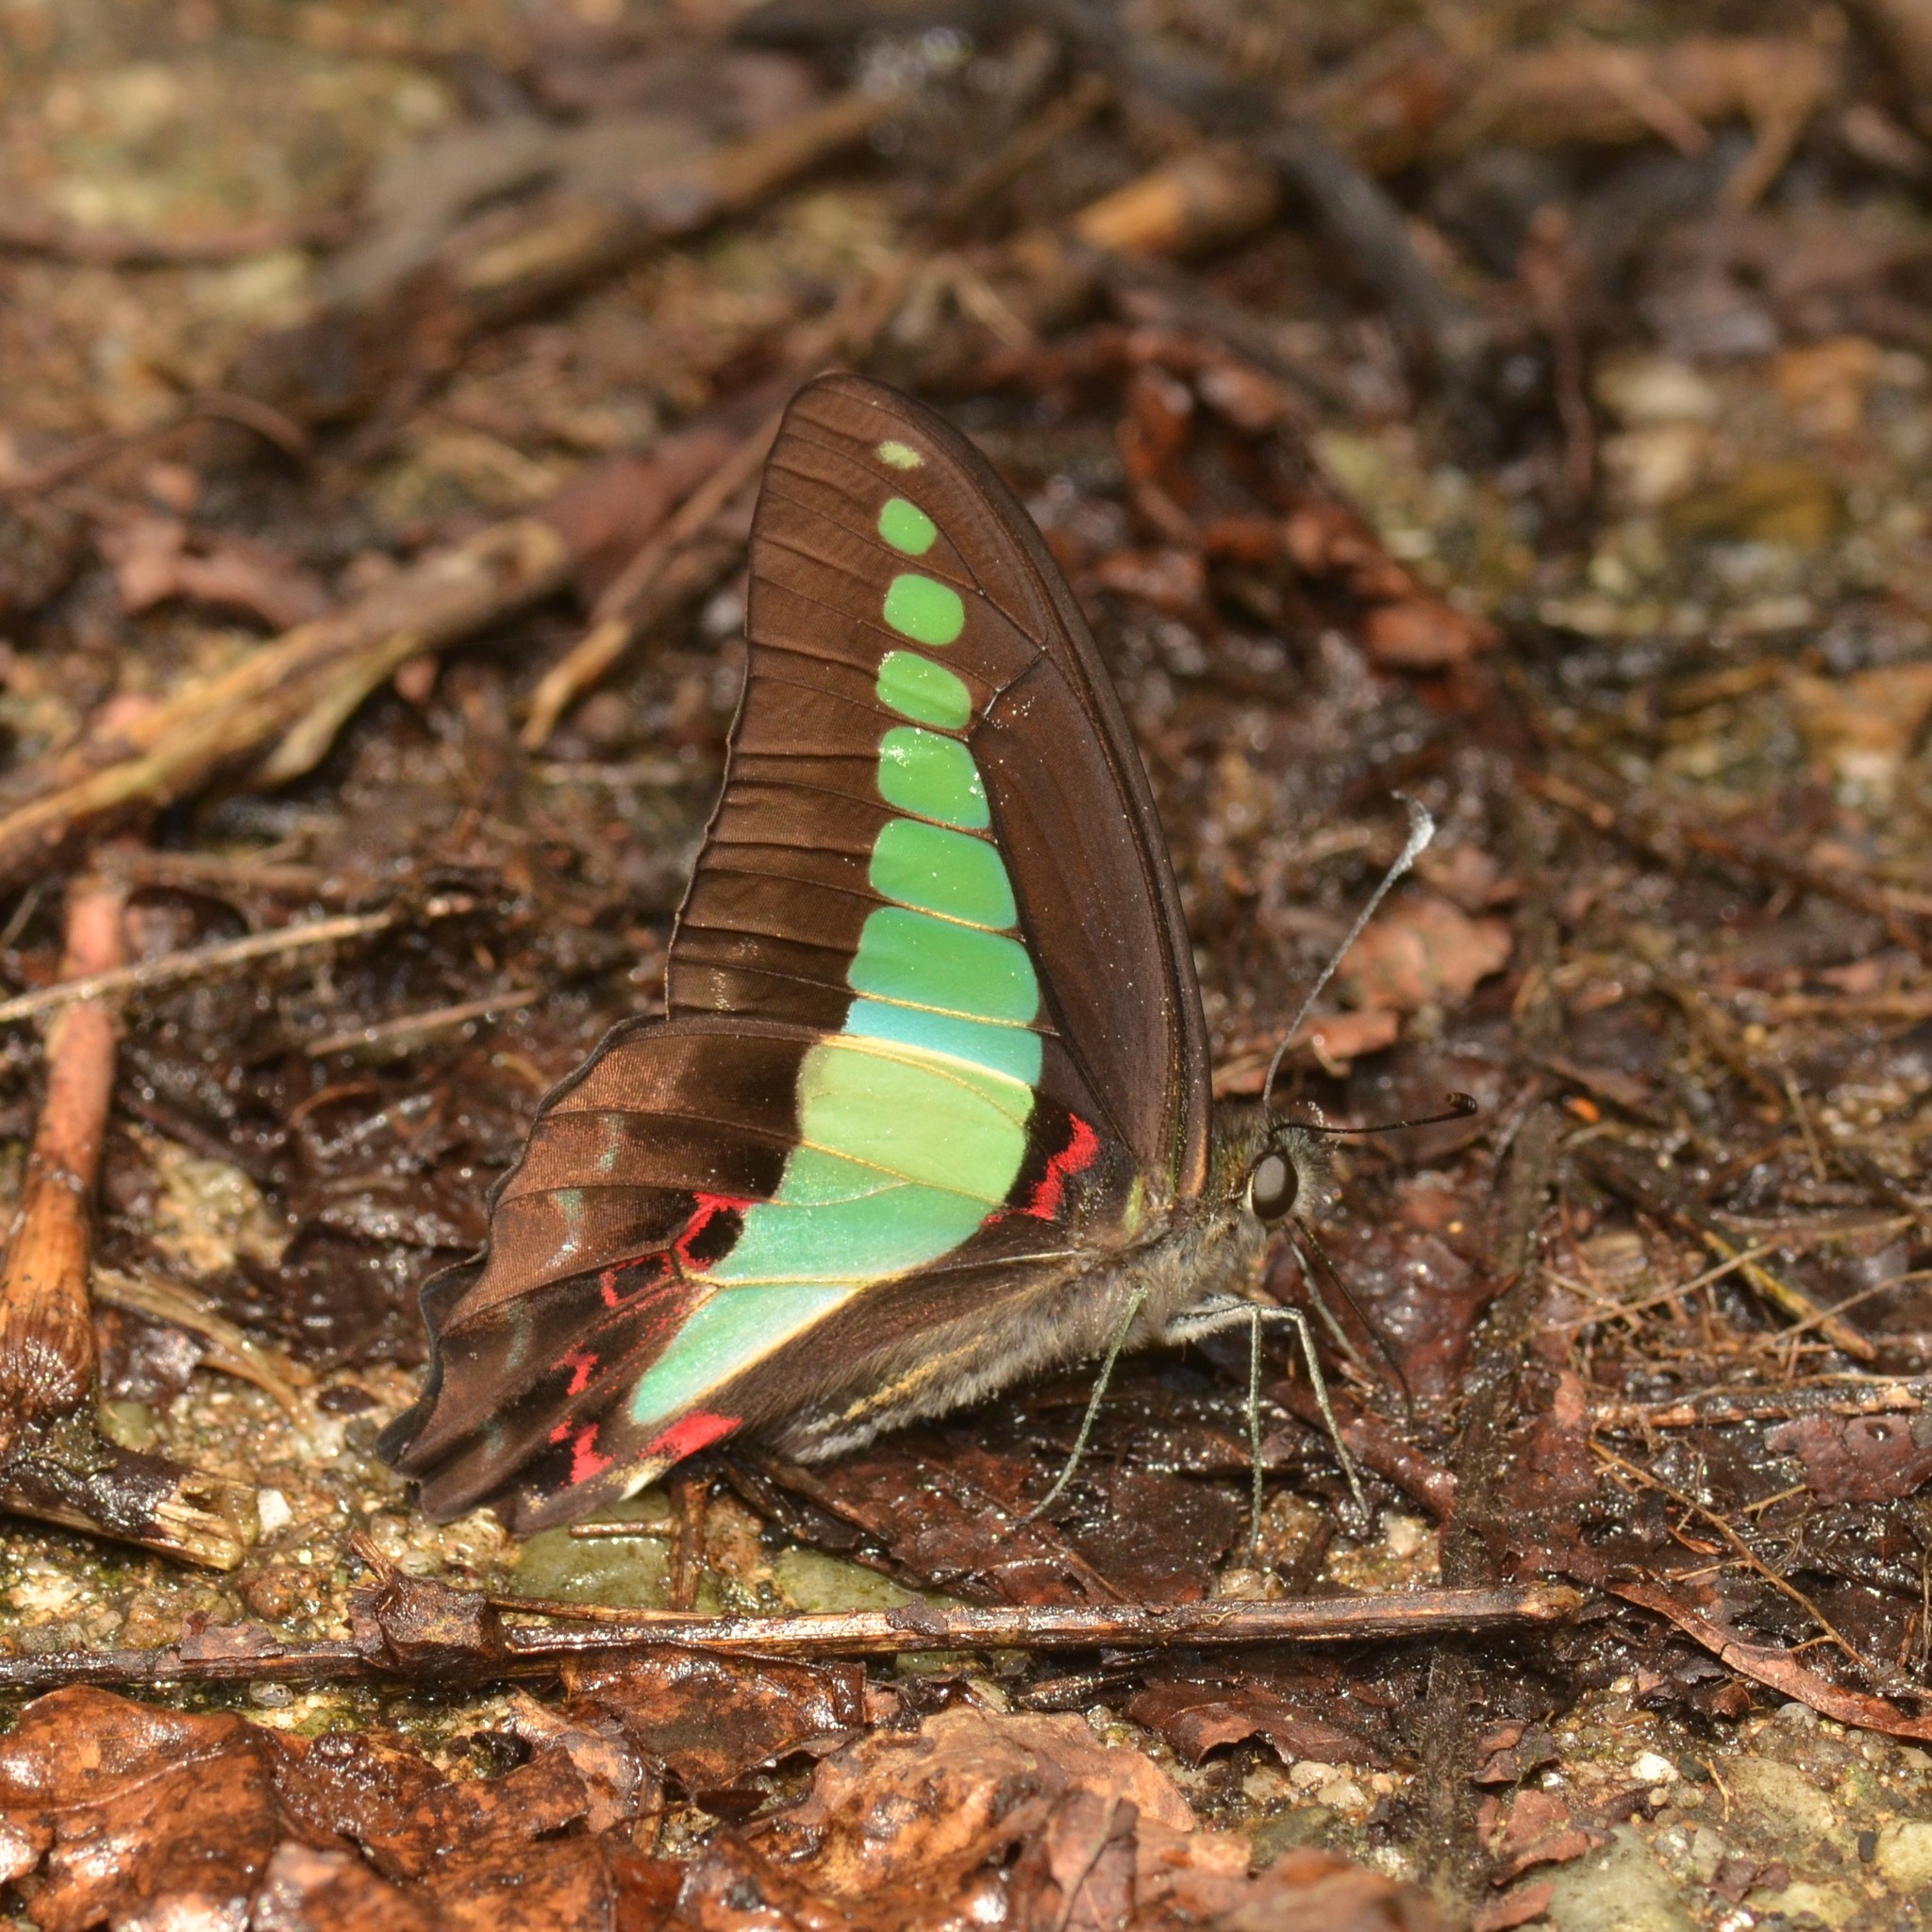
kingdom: Fungi
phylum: Ascomycota
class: Sordariomycetes
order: Microascales
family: Microascaceae
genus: Graphium
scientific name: Graphium sarpedon
